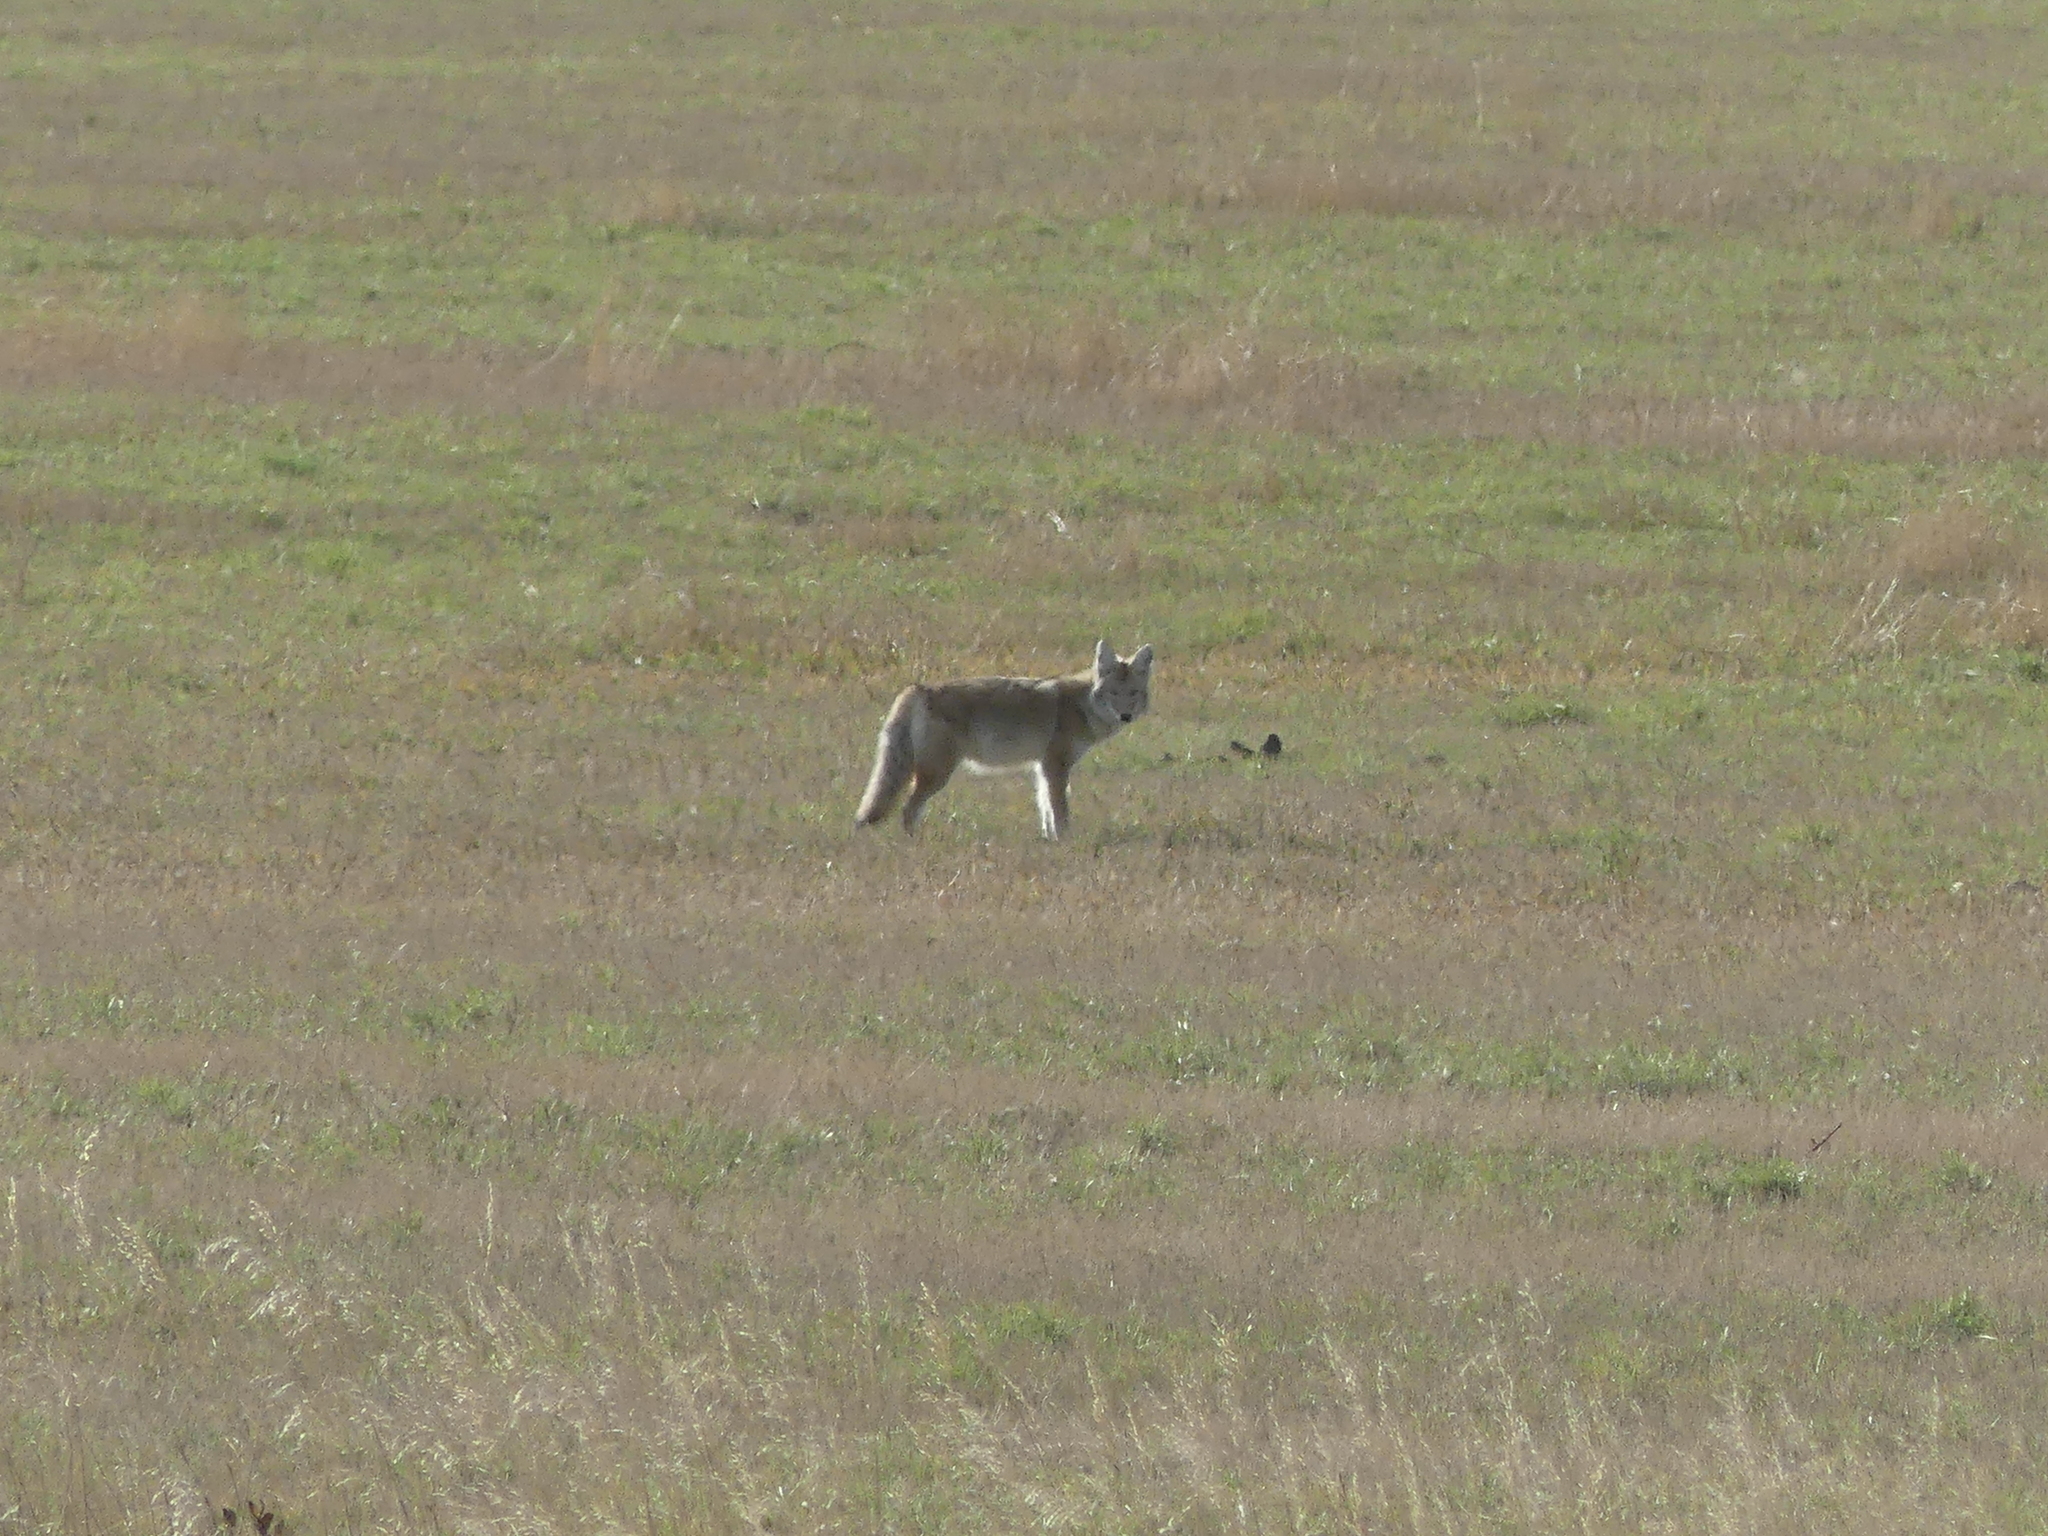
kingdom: Animalia
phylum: Chordata
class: Mammalia
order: Carnivora
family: Canidae
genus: Canis
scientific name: Canis latrans
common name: Coyote
